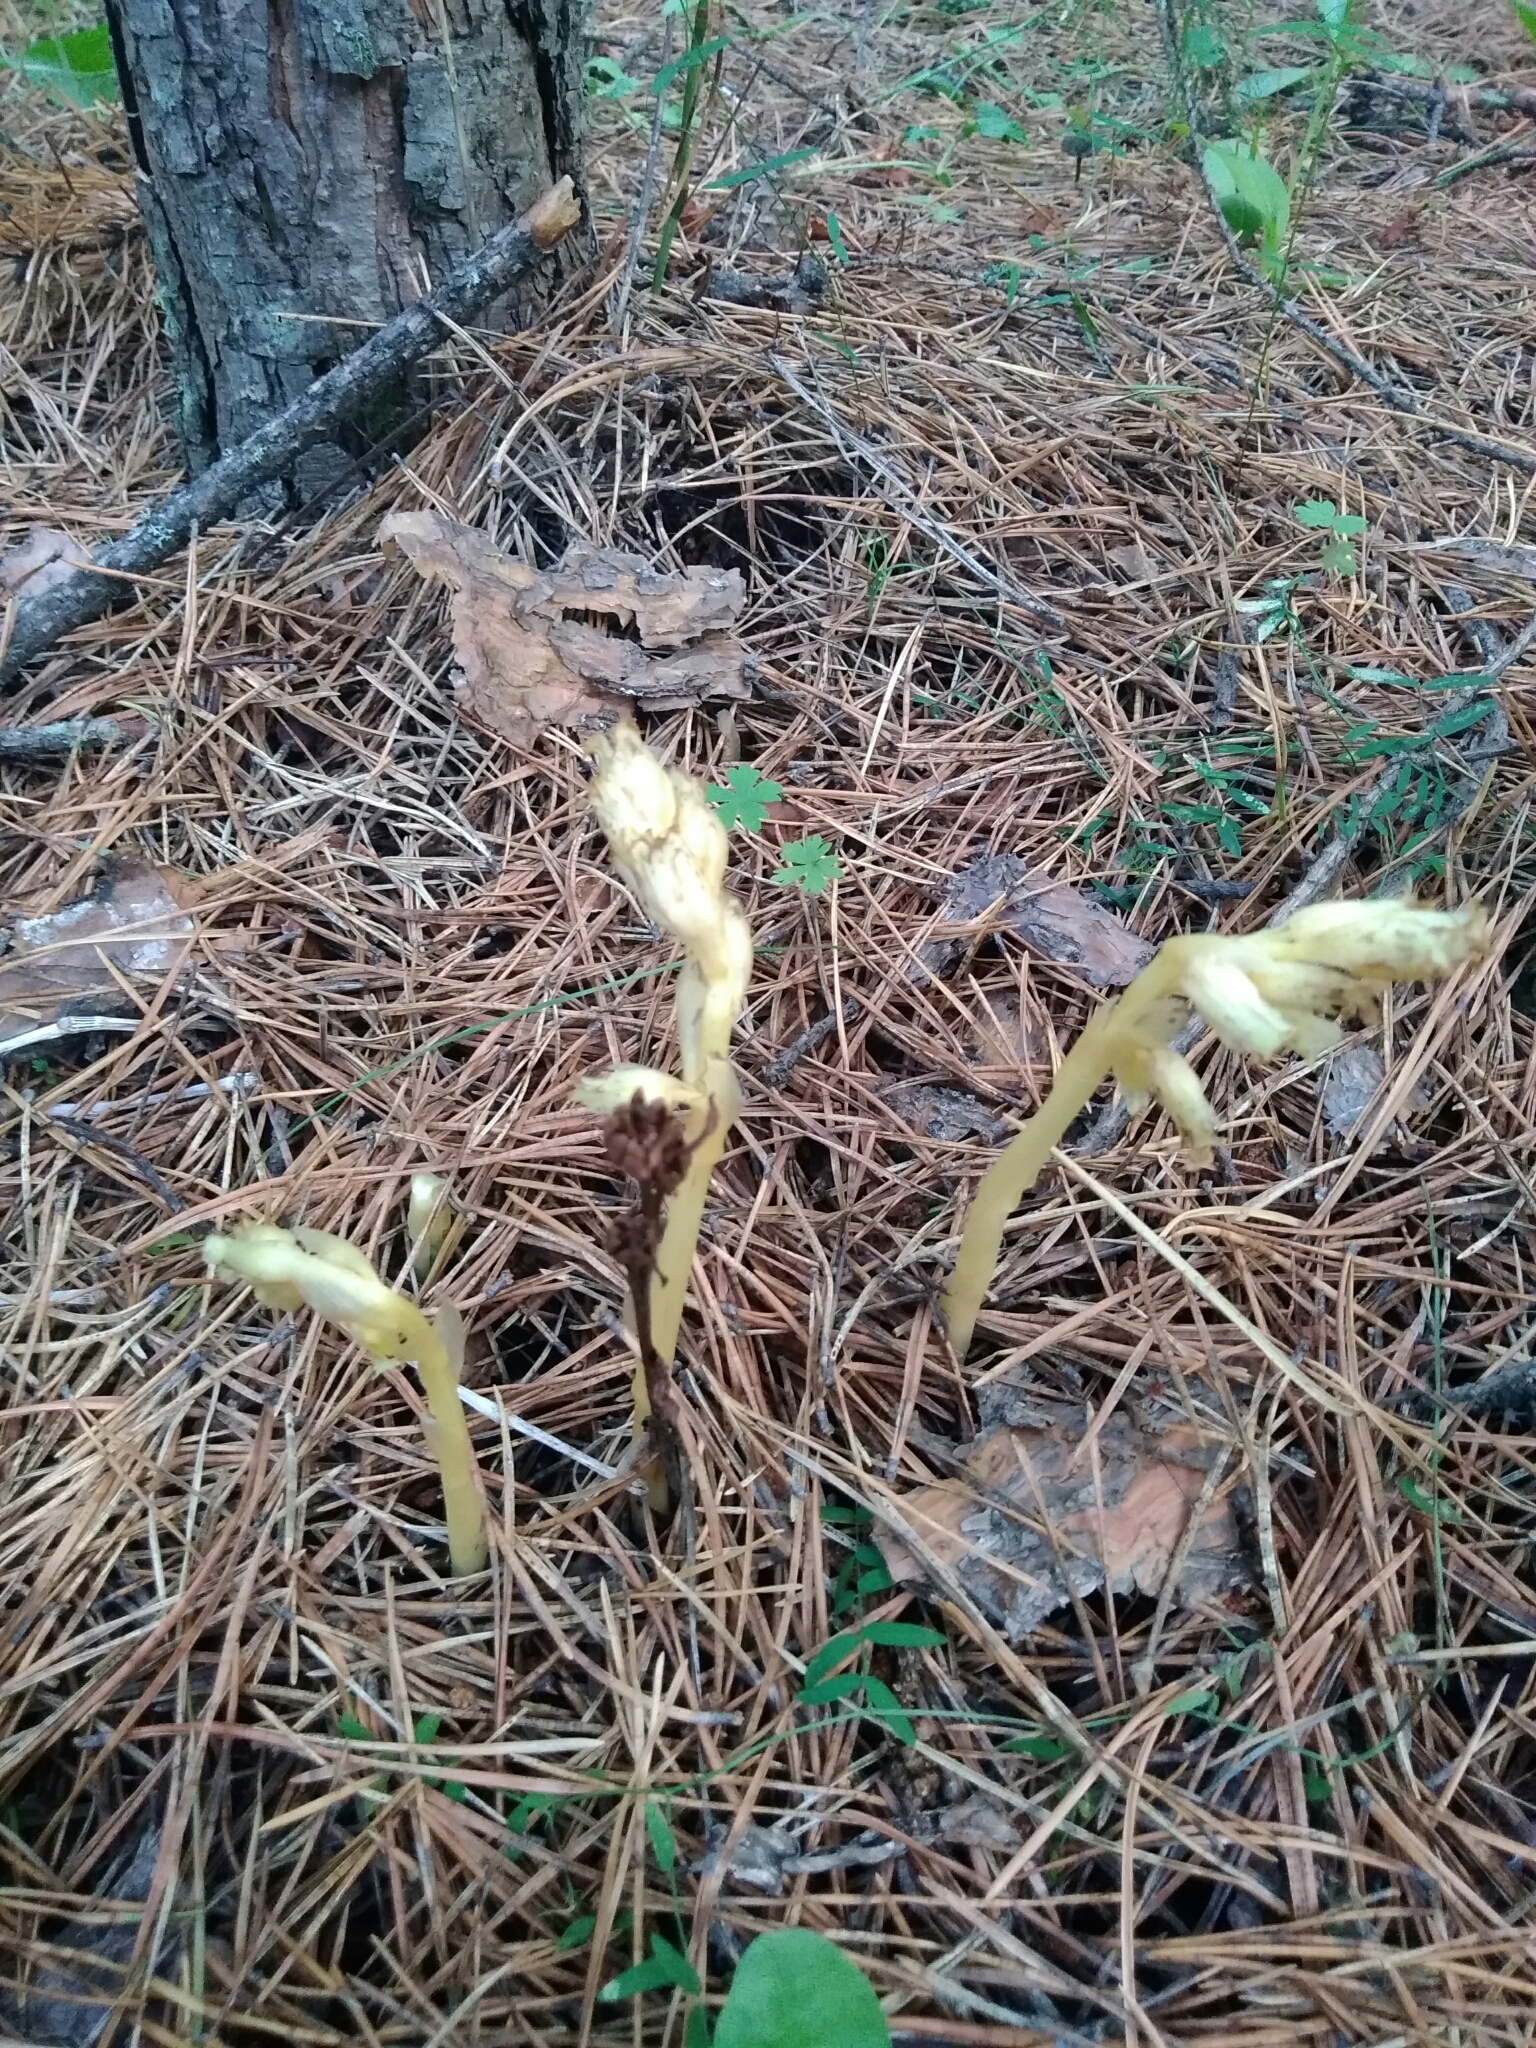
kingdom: Plantae
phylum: Tracheophyta
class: Magnoliopsida
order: Ericales
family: Ericaceae
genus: Hypopitys
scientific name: Hypopitys monotropa
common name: Yellow bird's-nest
